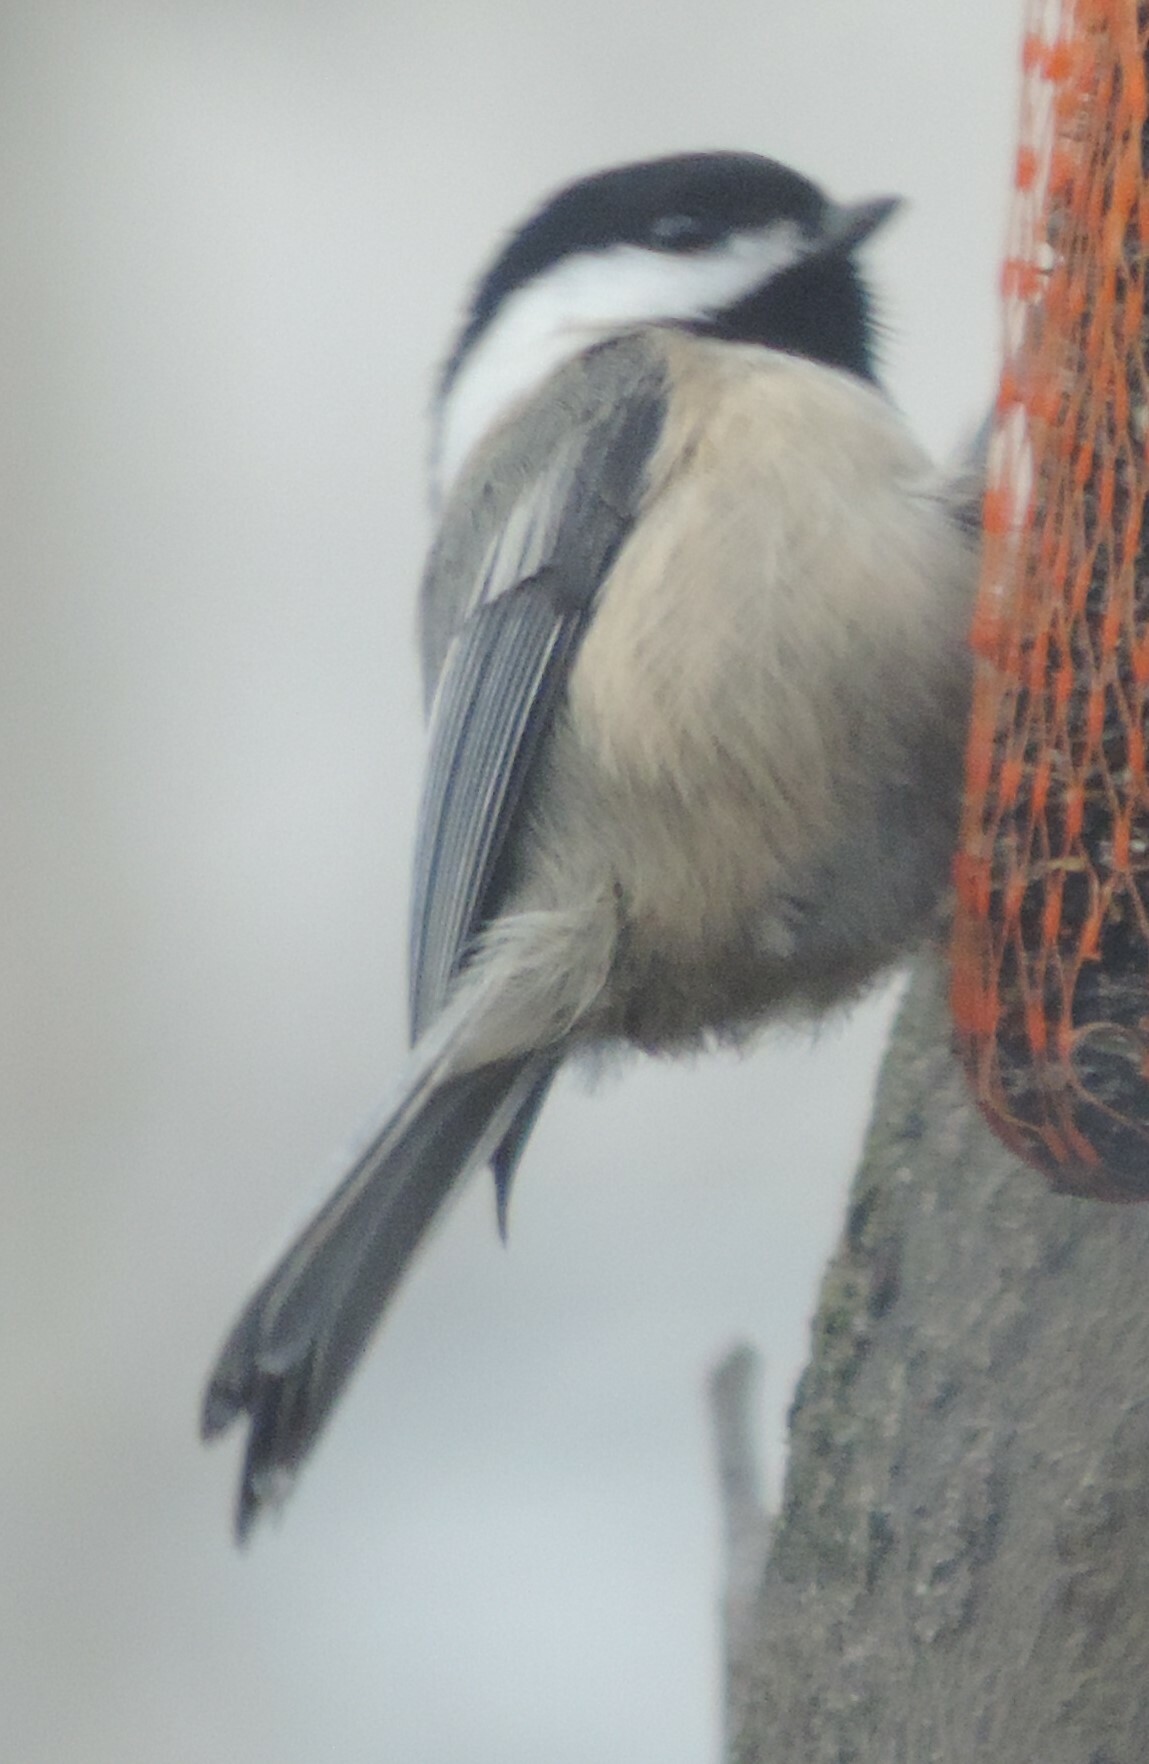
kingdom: Animalia
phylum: Chordata
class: Aves
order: Passeriformes
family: Paridae
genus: Poecile
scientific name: Poecile atricapillus
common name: Black-capped chickadee
